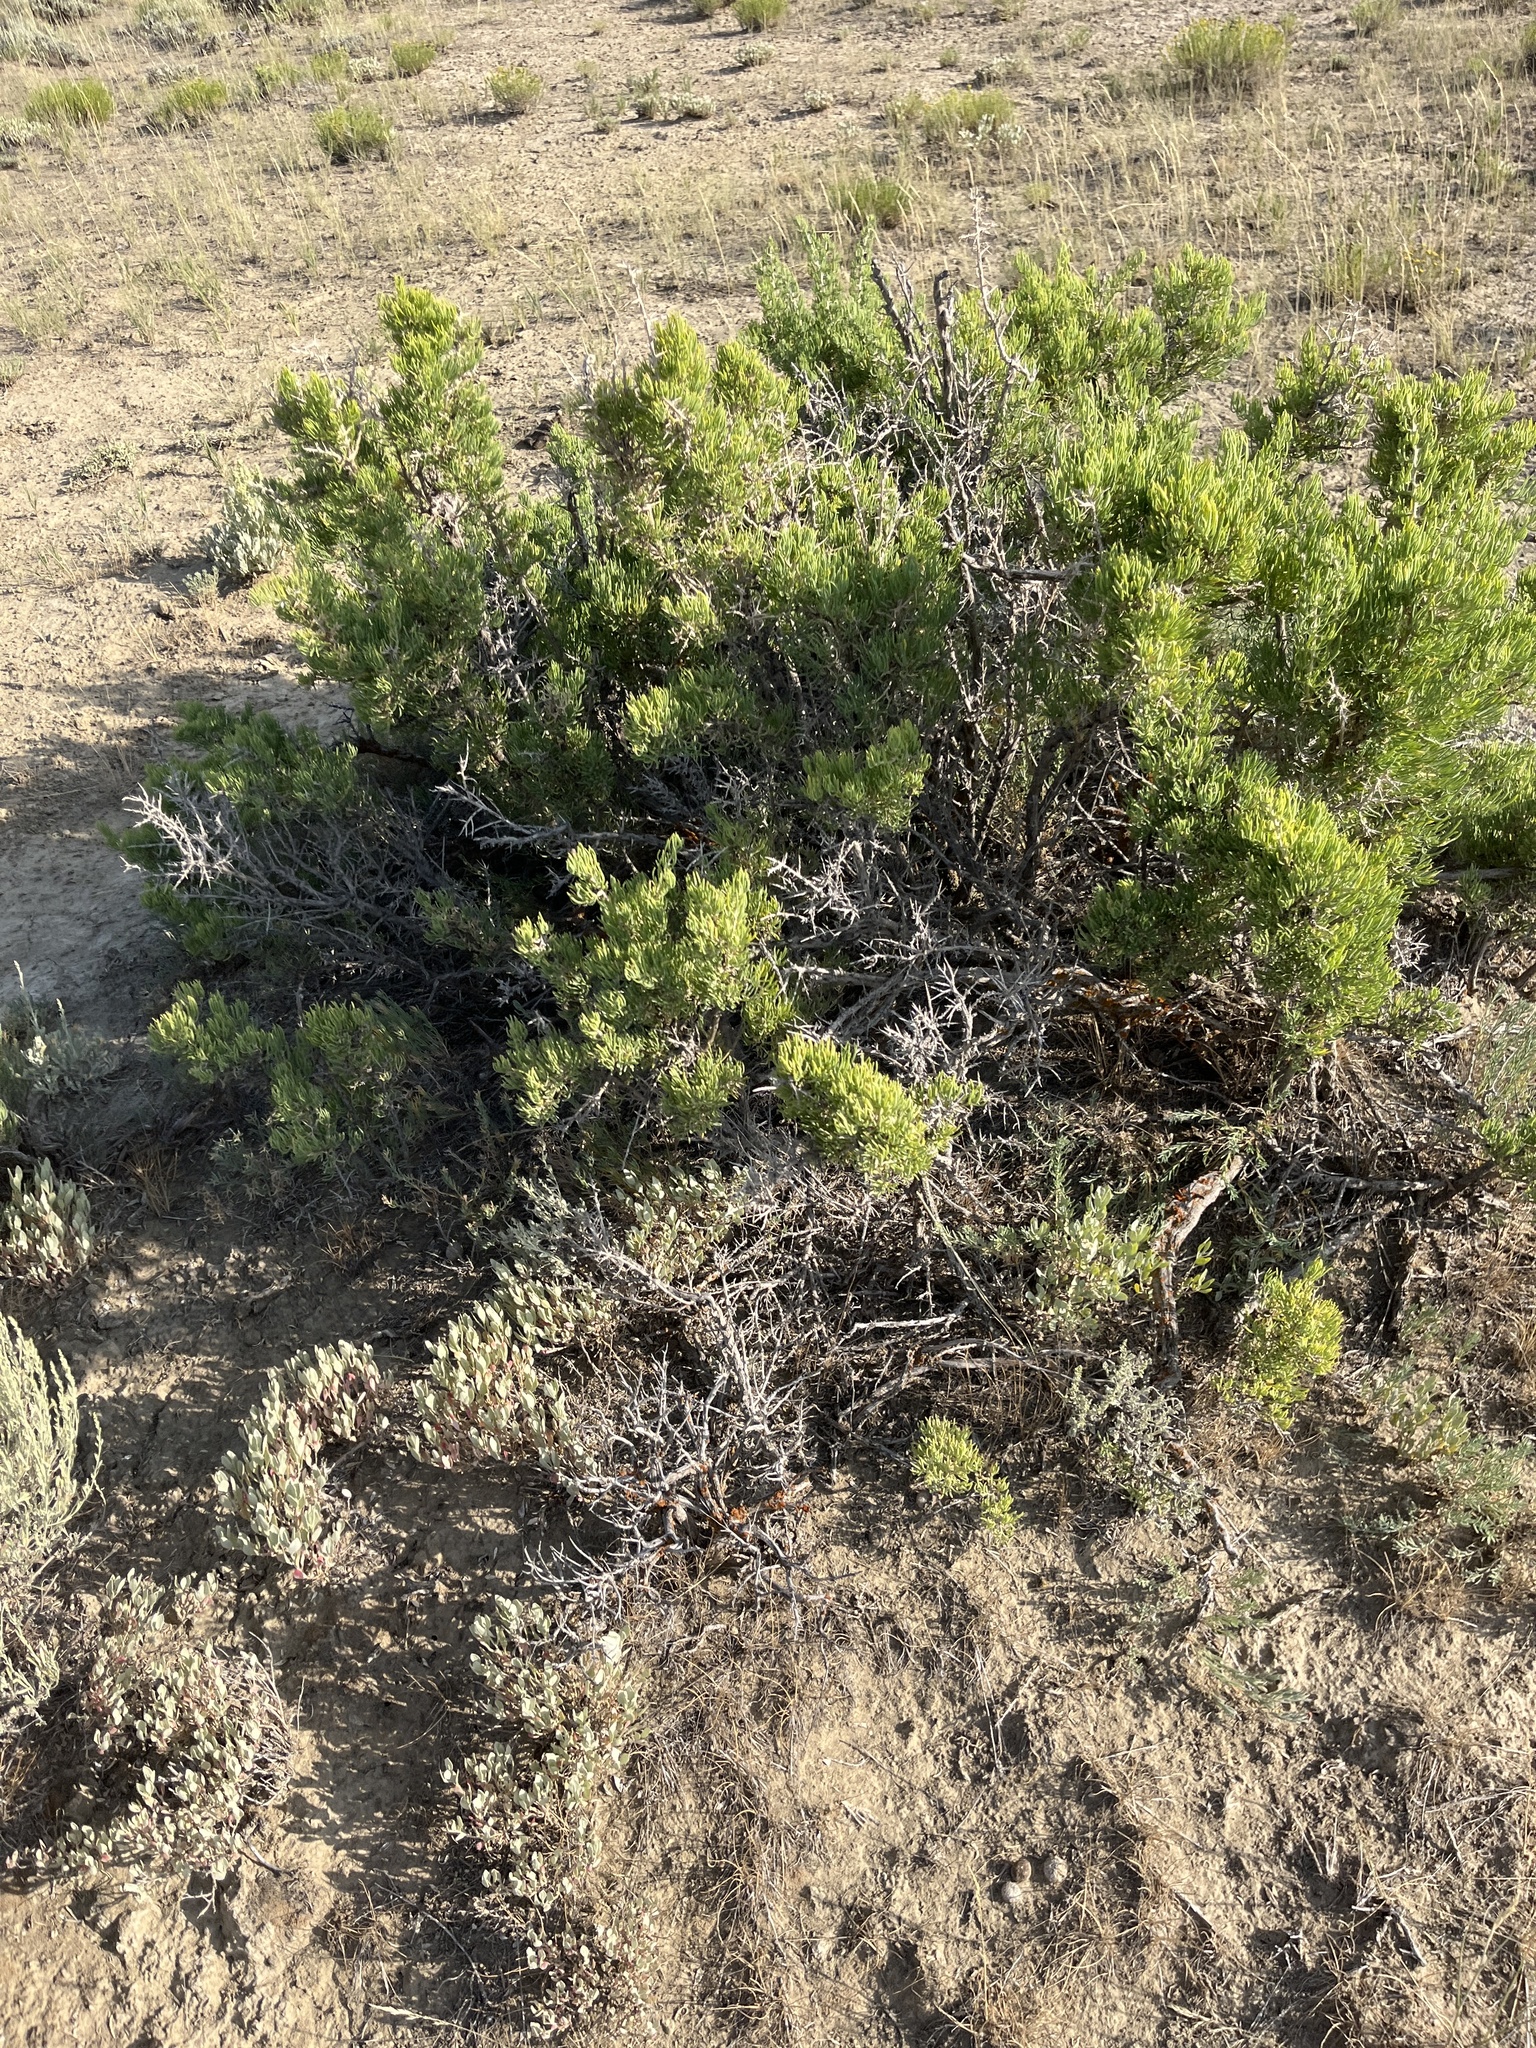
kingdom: Plantae
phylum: Tracheophyta
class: Magnoliopsida
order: Caryophyllales
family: Sarcobataceae
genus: Sarcobatus
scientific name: Sarcobatus vermiculatus
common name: Greasewood
